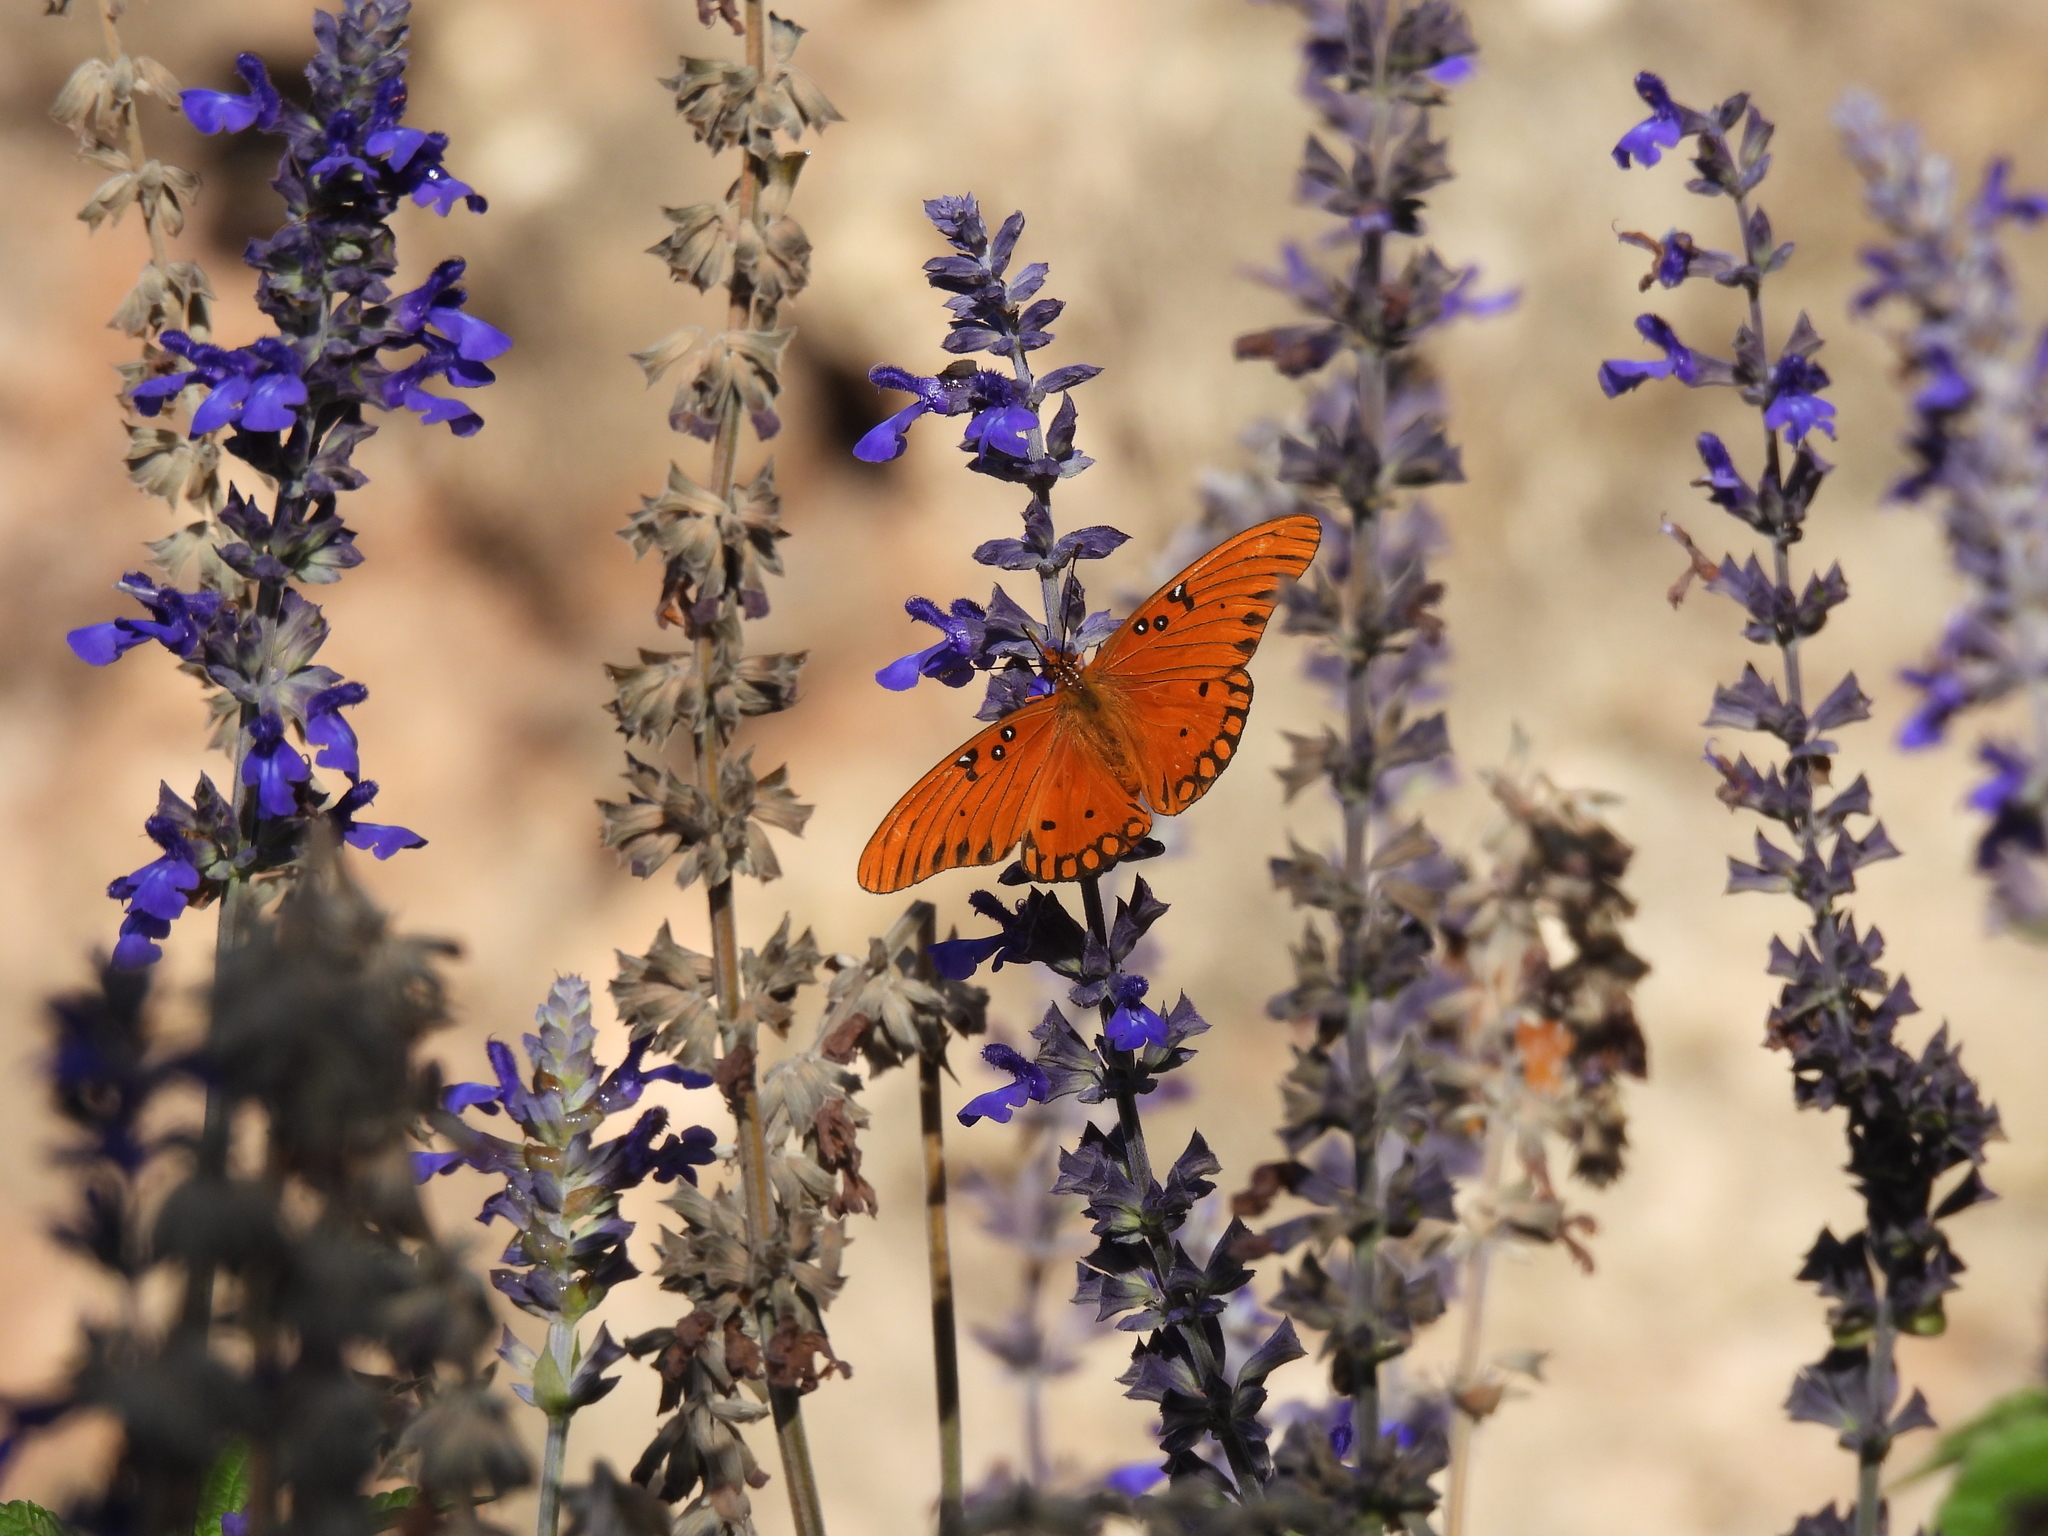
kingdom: Animalia
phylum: Arthropoda
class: Insecta
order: Lepidoptera
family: Nymphalidae
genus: Dione
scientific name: Dione vanillae
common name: Gulf fritillary
